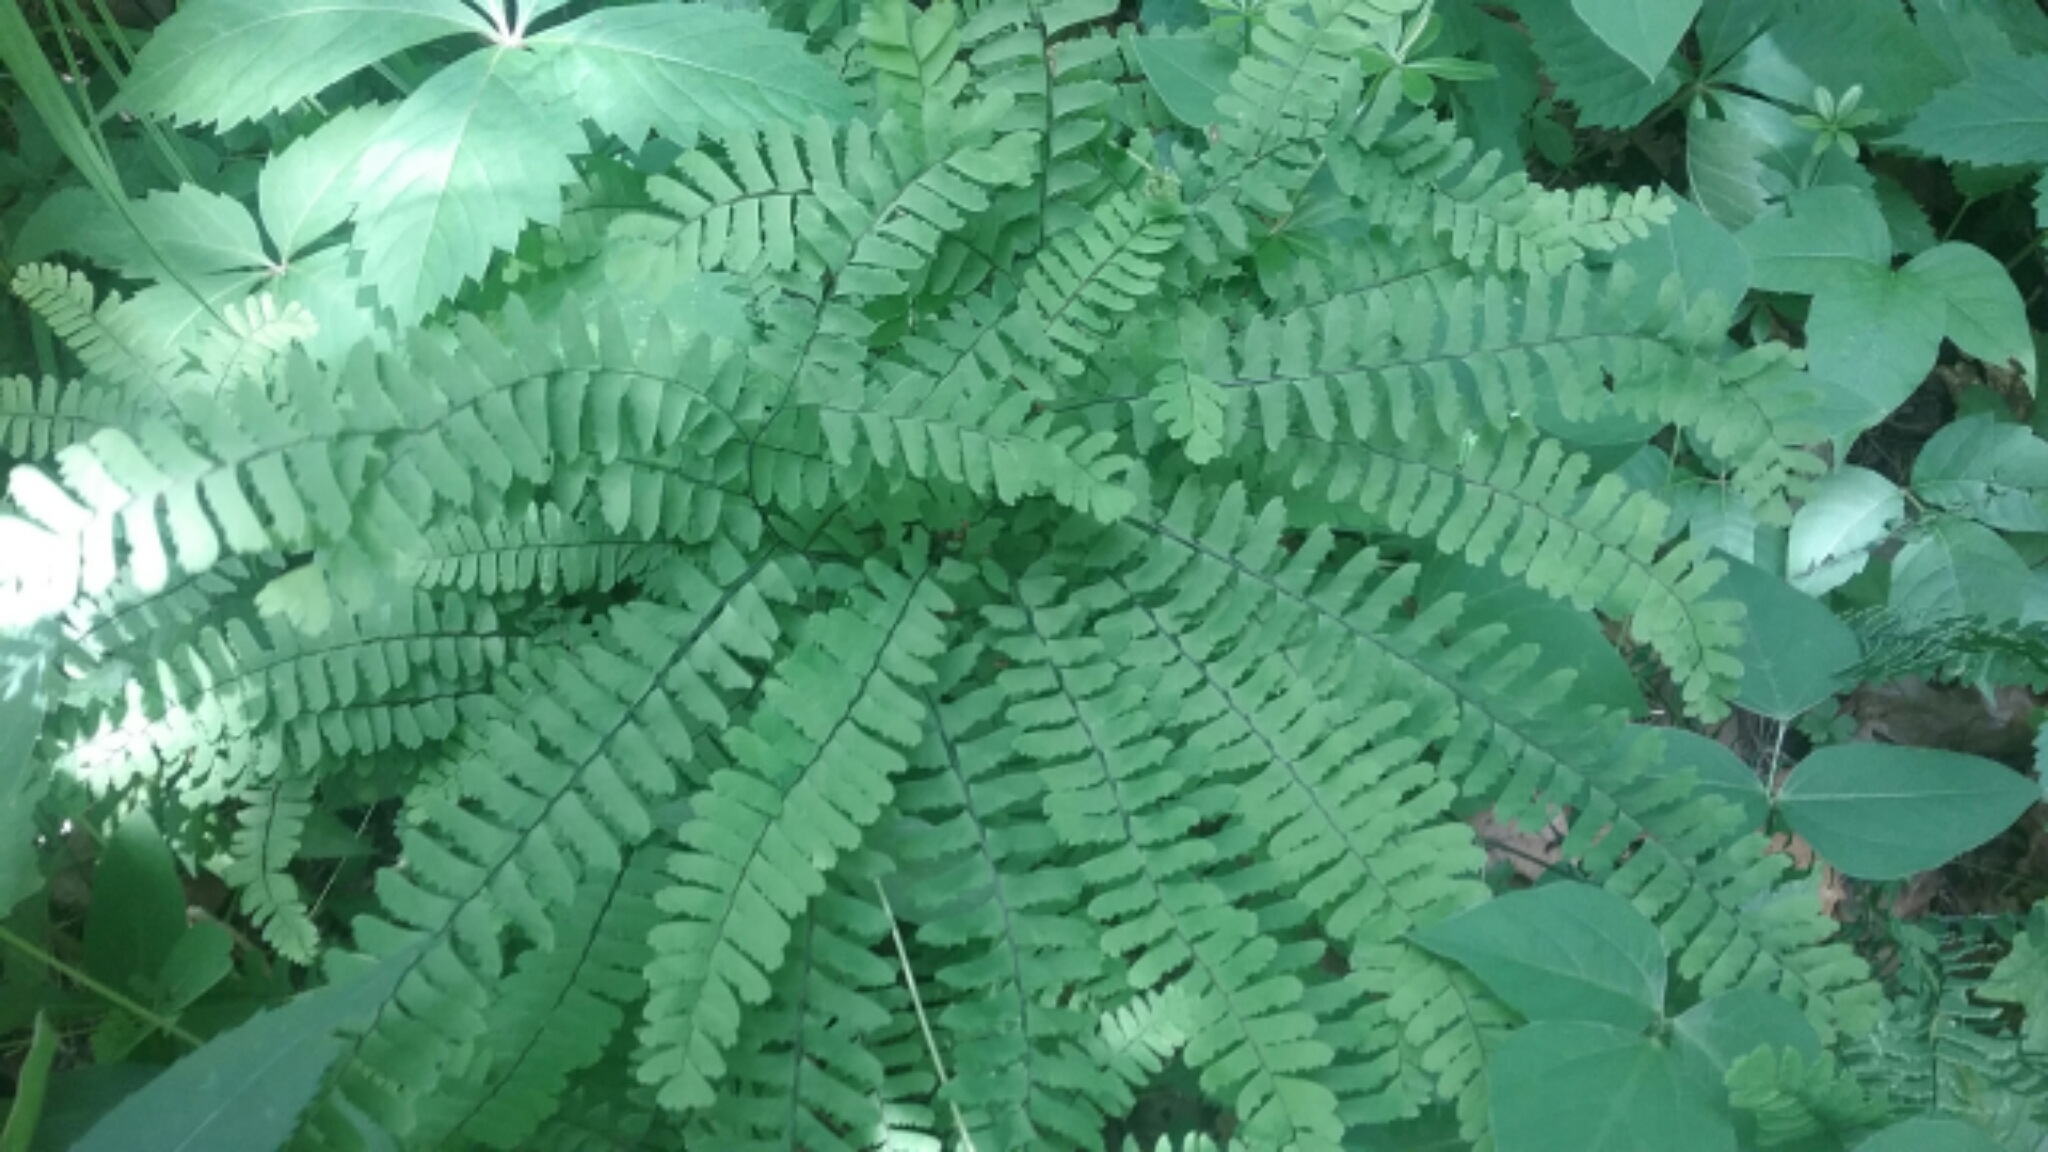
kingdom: Plantae
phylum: Tracheophyta
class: Polypodiopsida
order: Polypodiales
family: Pteridaceae
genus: Adiantum
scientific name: Adiantum pedatum
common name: Five-finger fern
